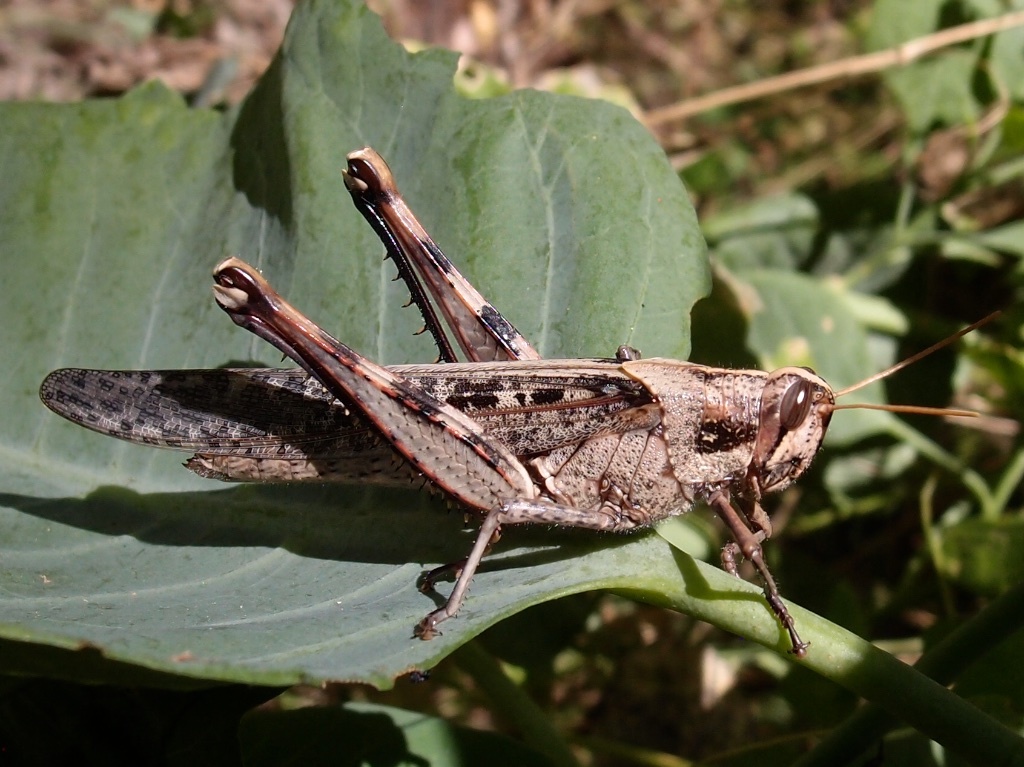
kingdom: Animalia
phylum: Arthropoda
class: Insecta
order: Orthoptera
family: Acrididae
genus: Schistocerca
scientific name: Schistocerca nitens
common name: Vagrant grasshopper
